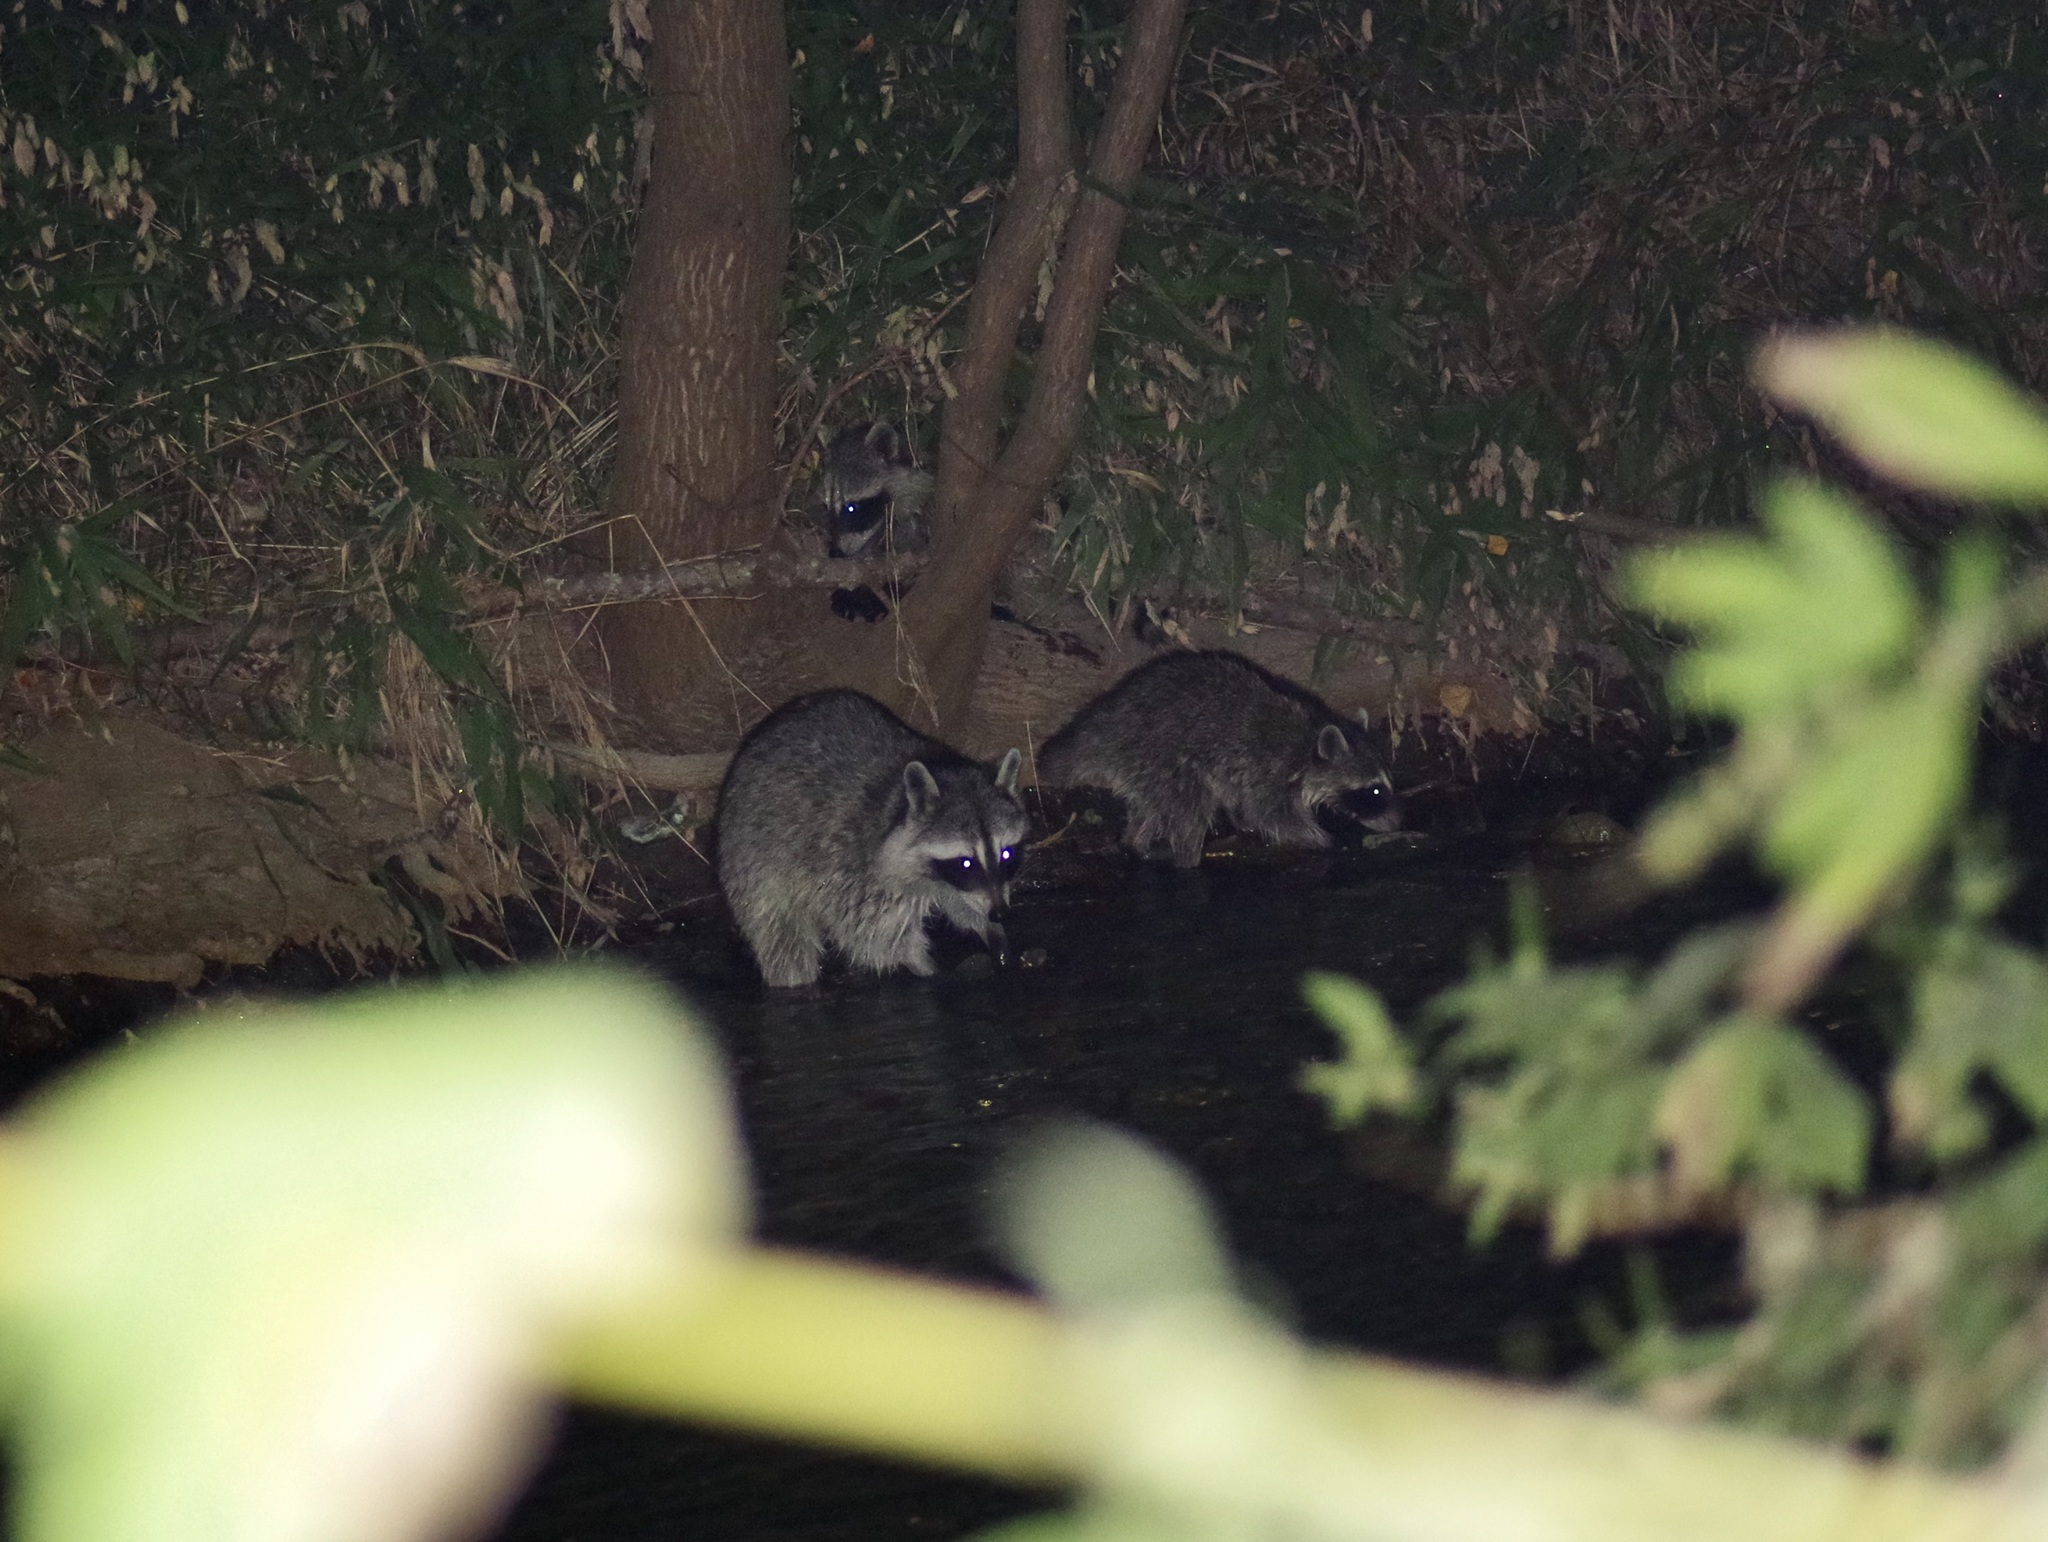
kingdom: Animalia
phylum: Chordata
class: Mammalia
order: Carnivora
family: Procyonidae
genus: Procyon
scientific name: Procyon lotor
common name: Raccoon
